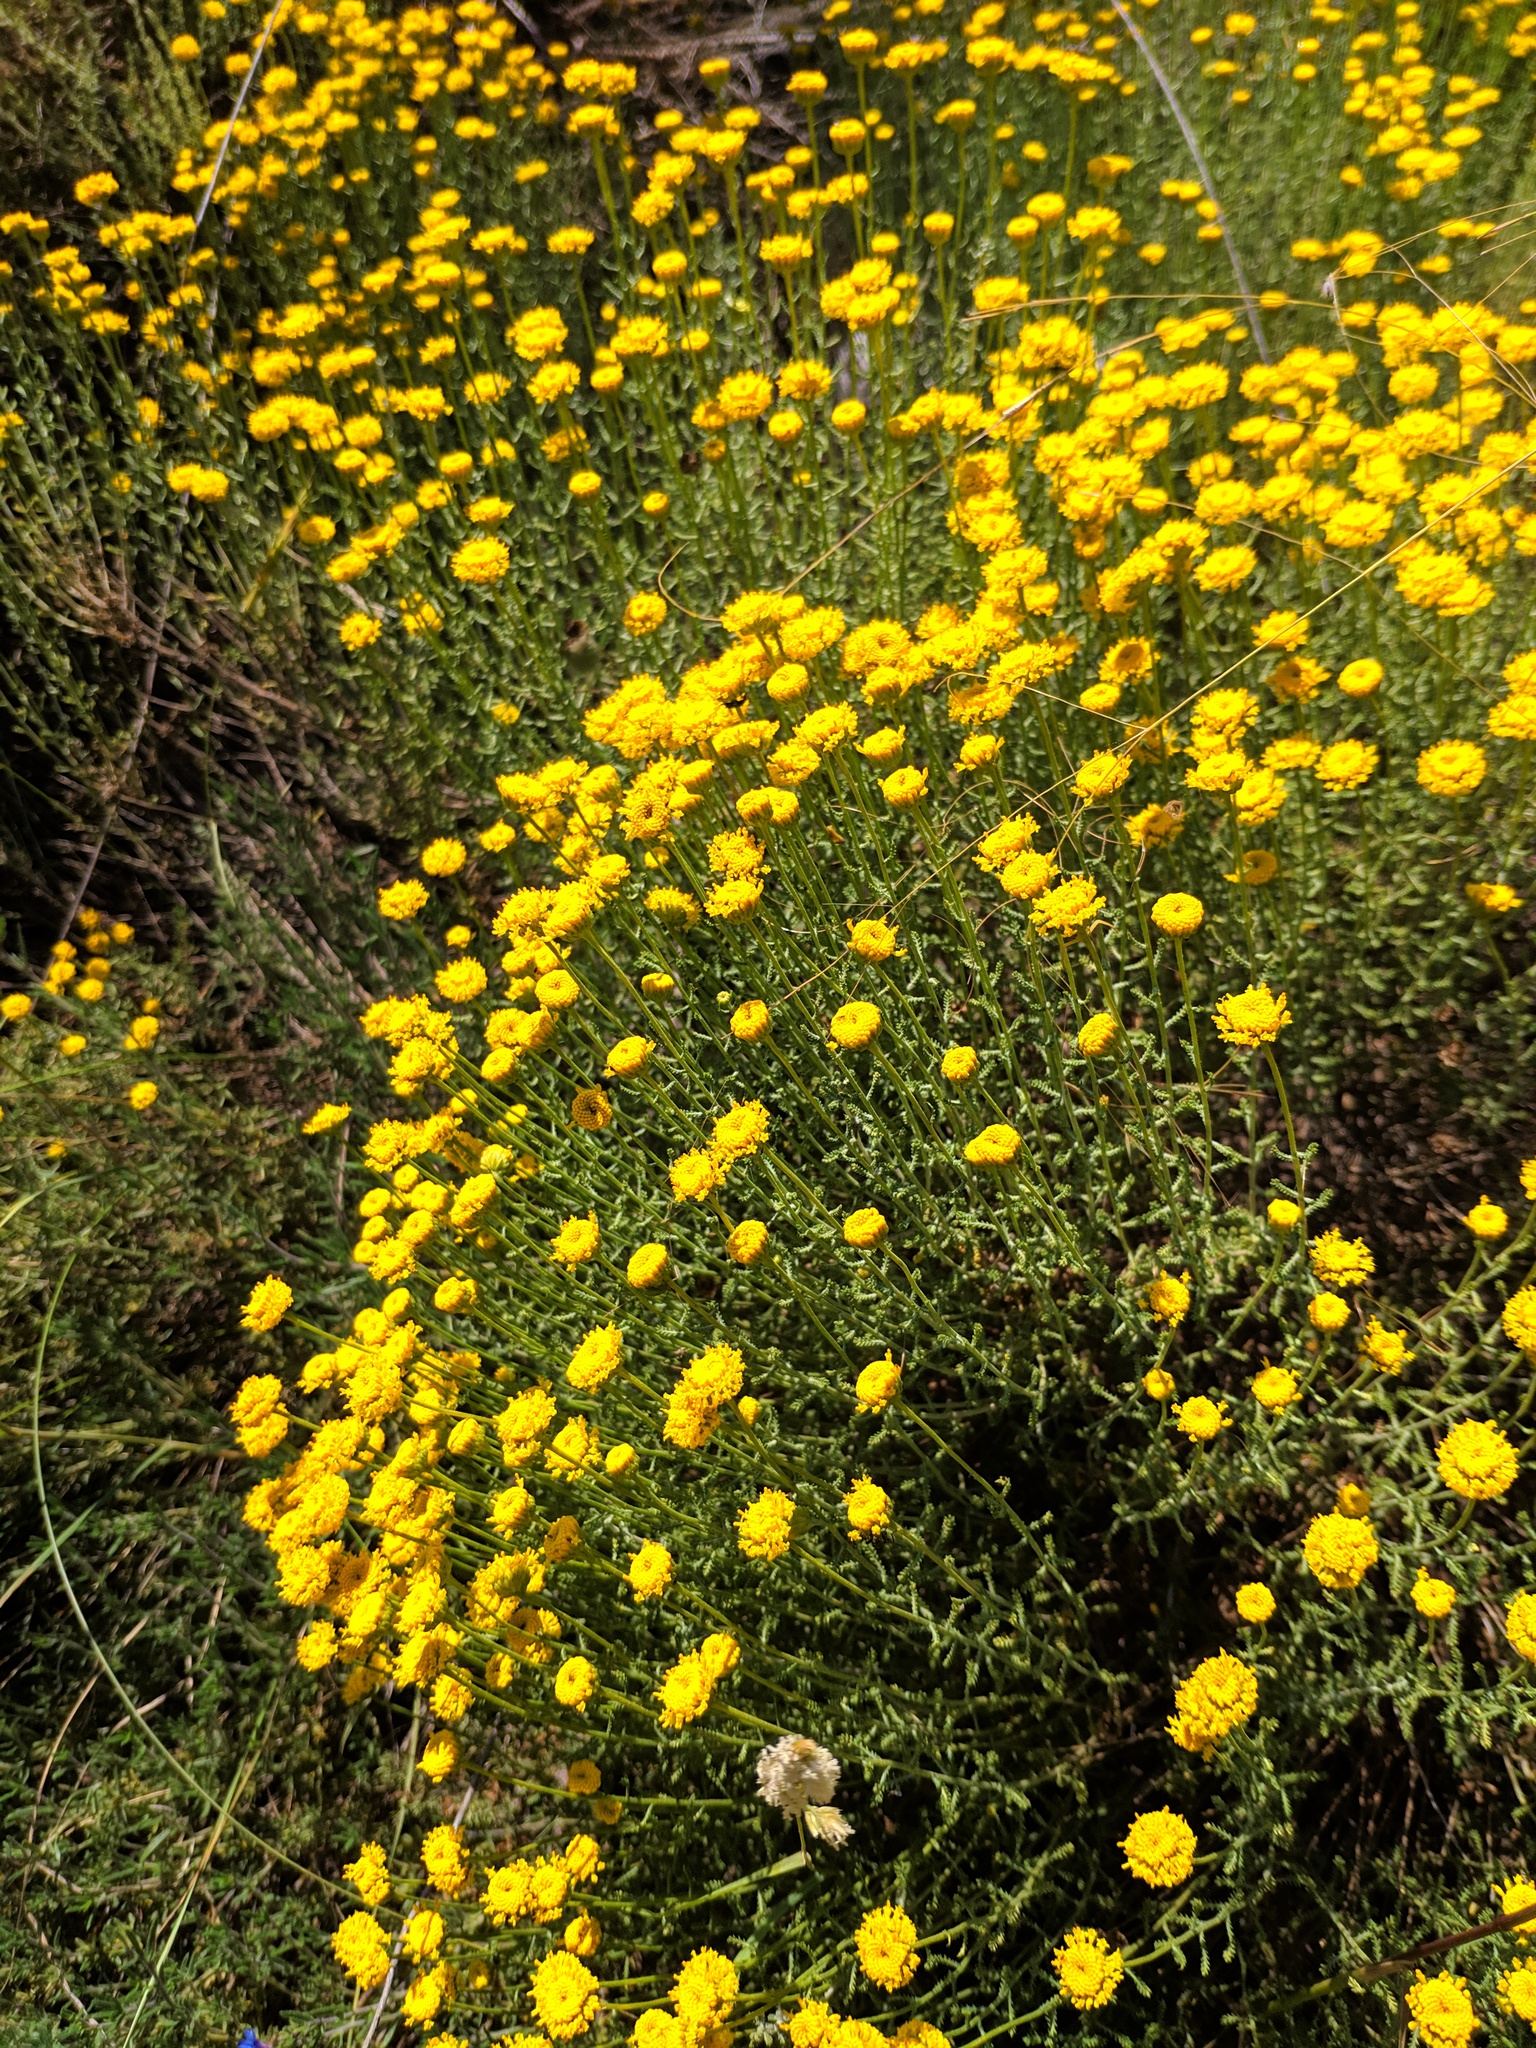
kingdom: Plantae
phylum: Tracheophyta
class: Magnoliopsida
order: Asterales
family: Asteraceae
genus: Santolina
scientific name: Santolina ericoides
